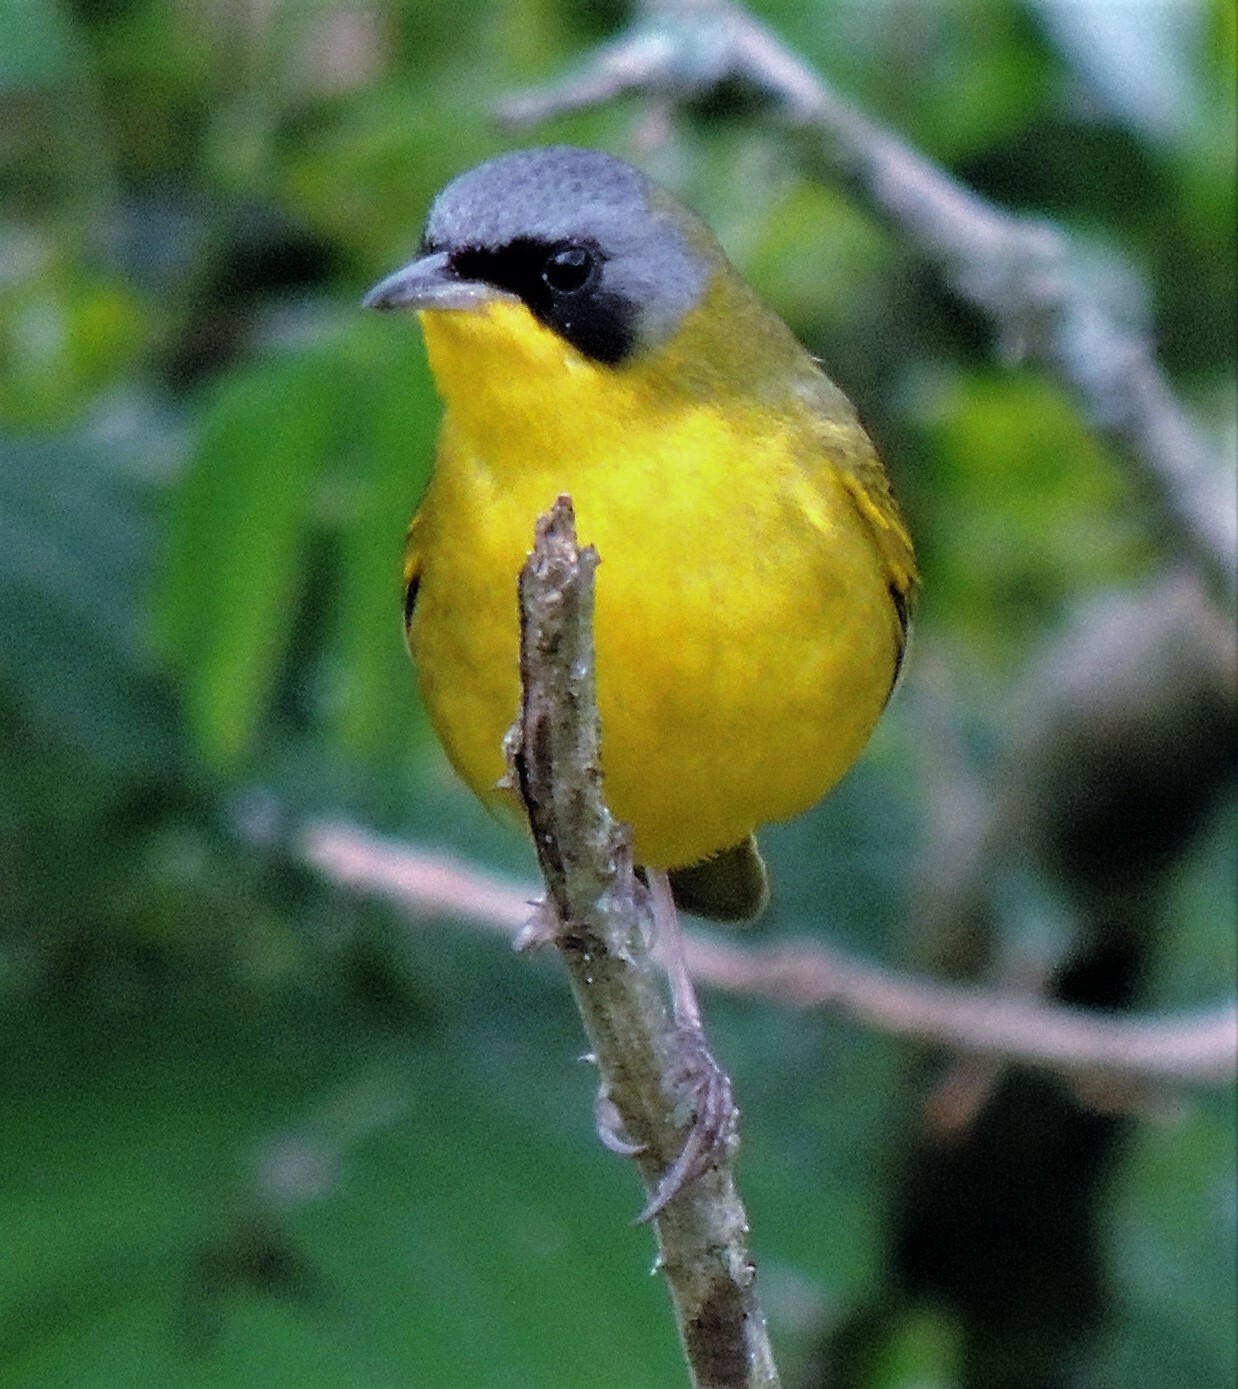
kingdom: Animalia
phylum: Chordata
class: Aves
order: Passeriformes
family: Parulidae
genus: Geothlypis
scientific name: Geothlypis velata
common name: Southern yellowthroat
